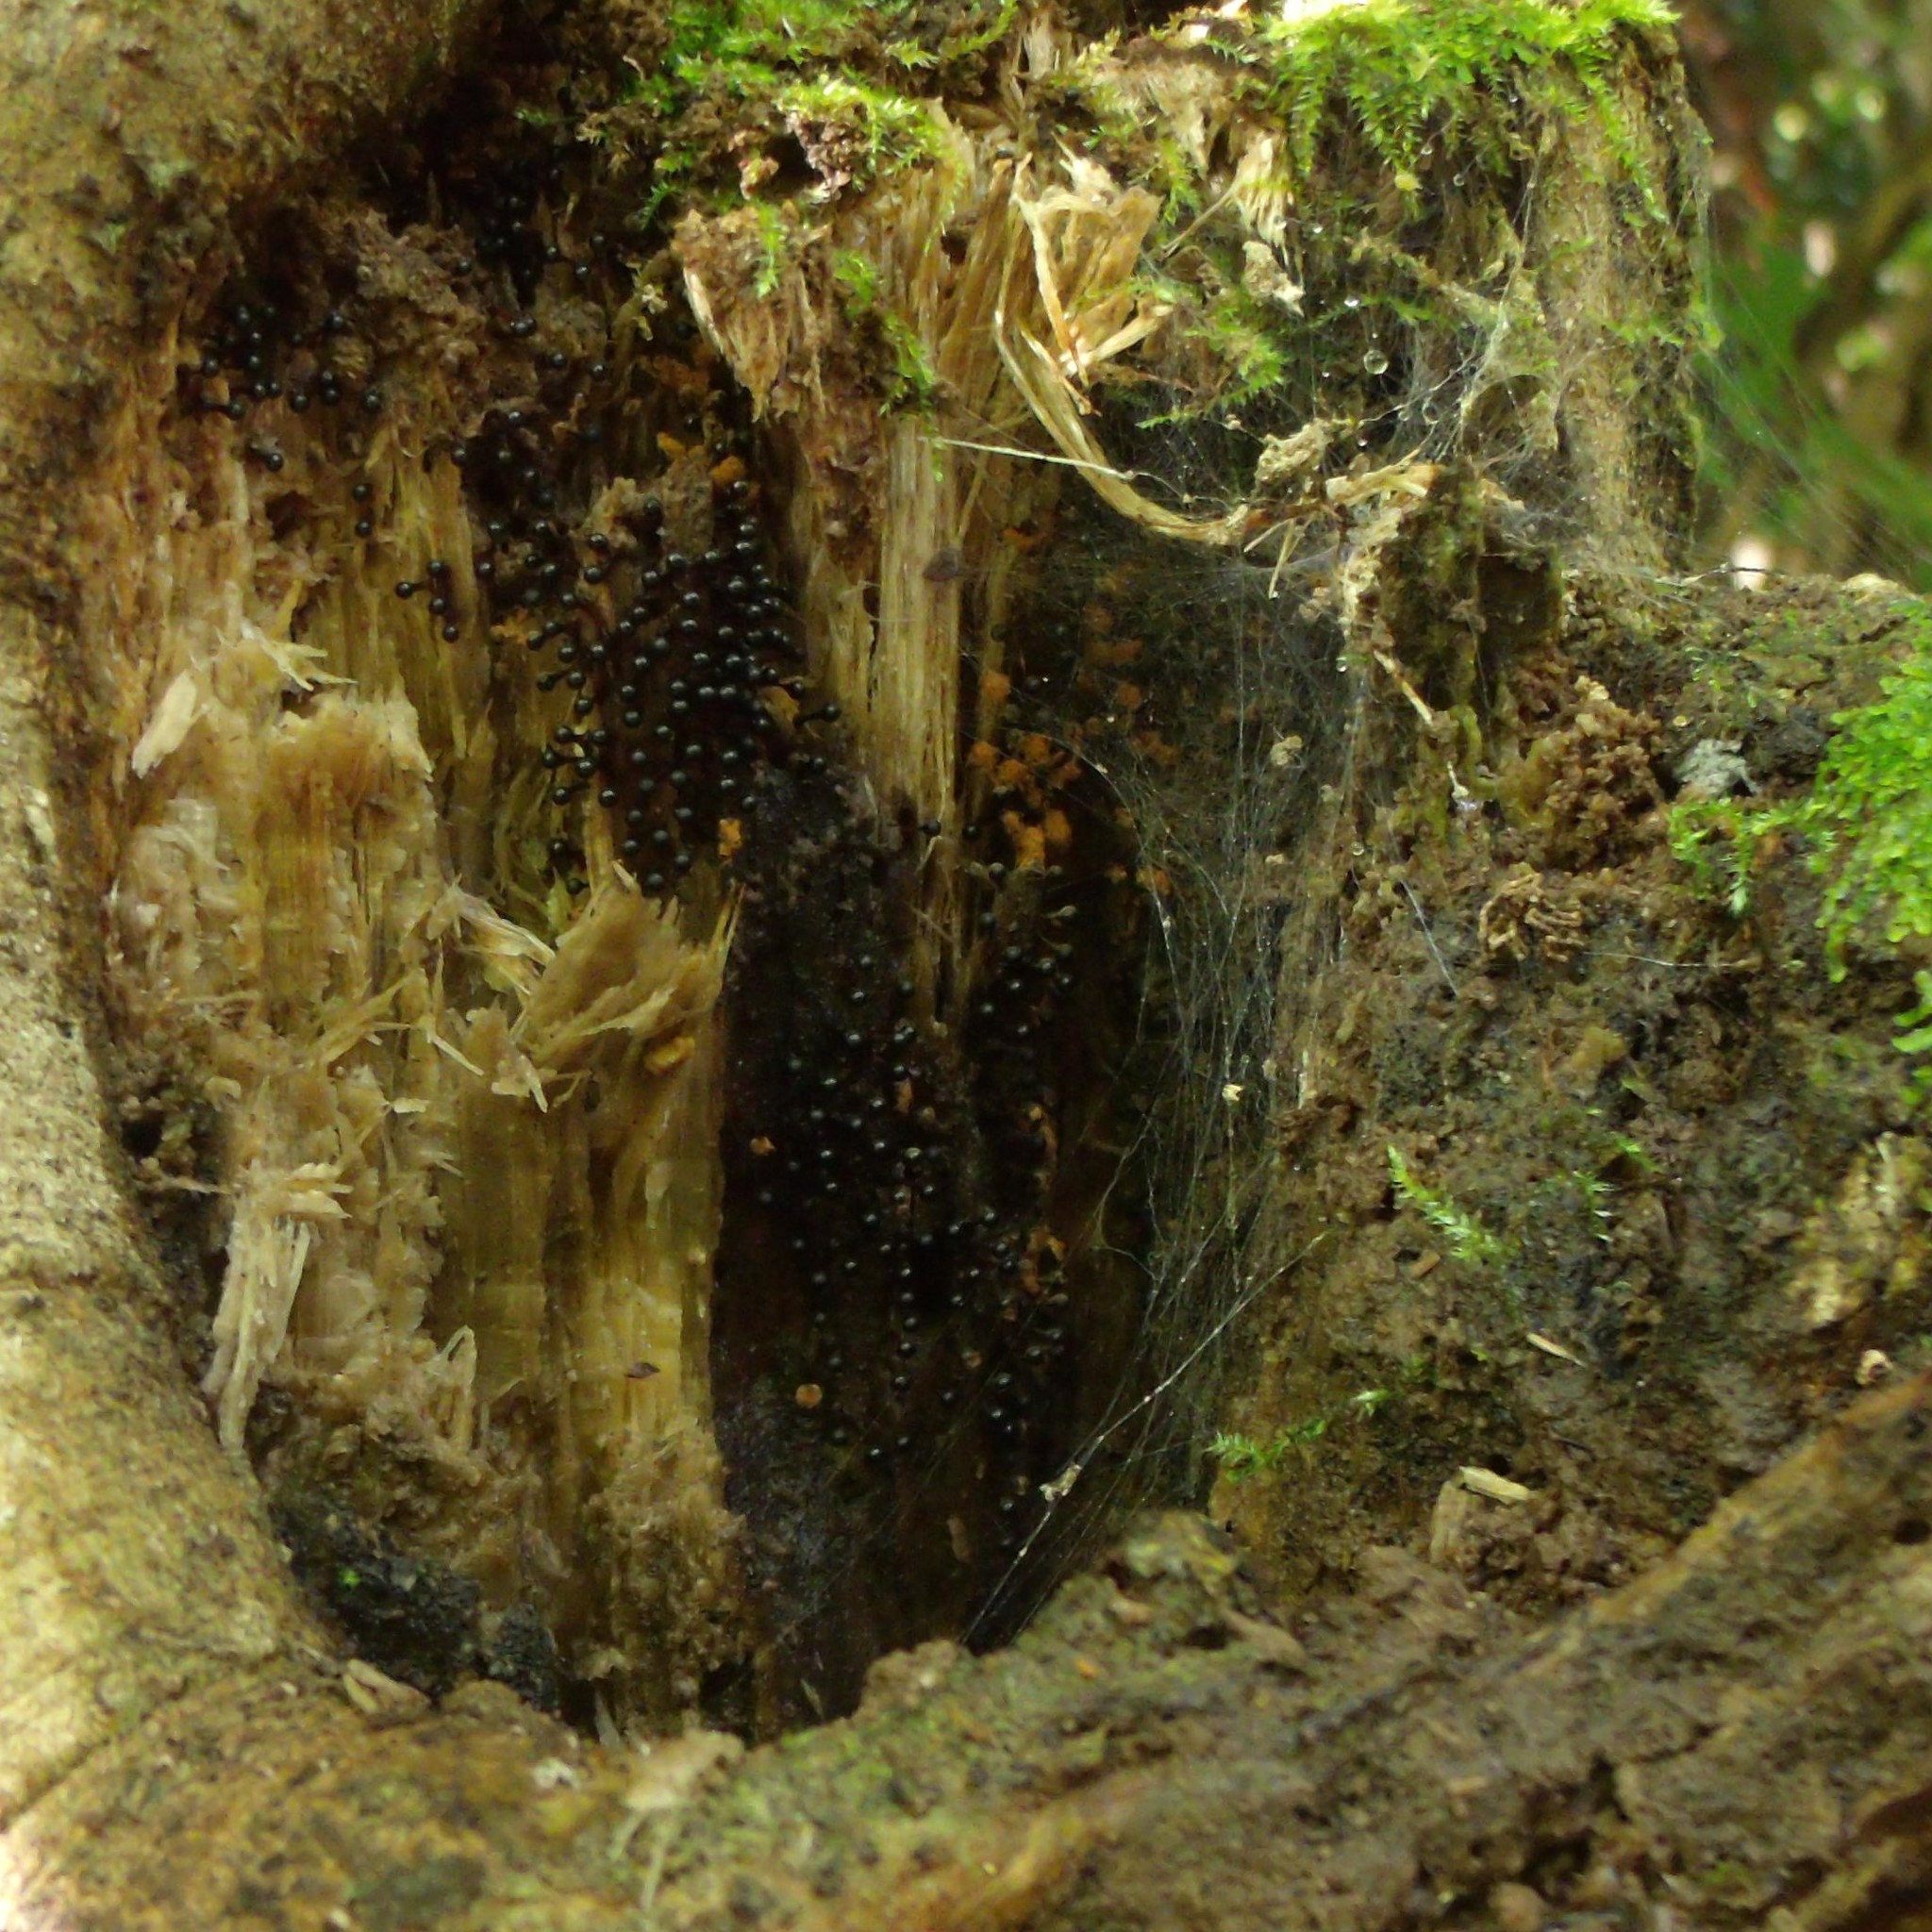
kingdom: Protozoa
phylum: Mycetozoa
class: Myxomycetes
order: Trichiales
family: Trichiaceae
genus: Metatrichia
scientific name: Metatrichia floriformis
